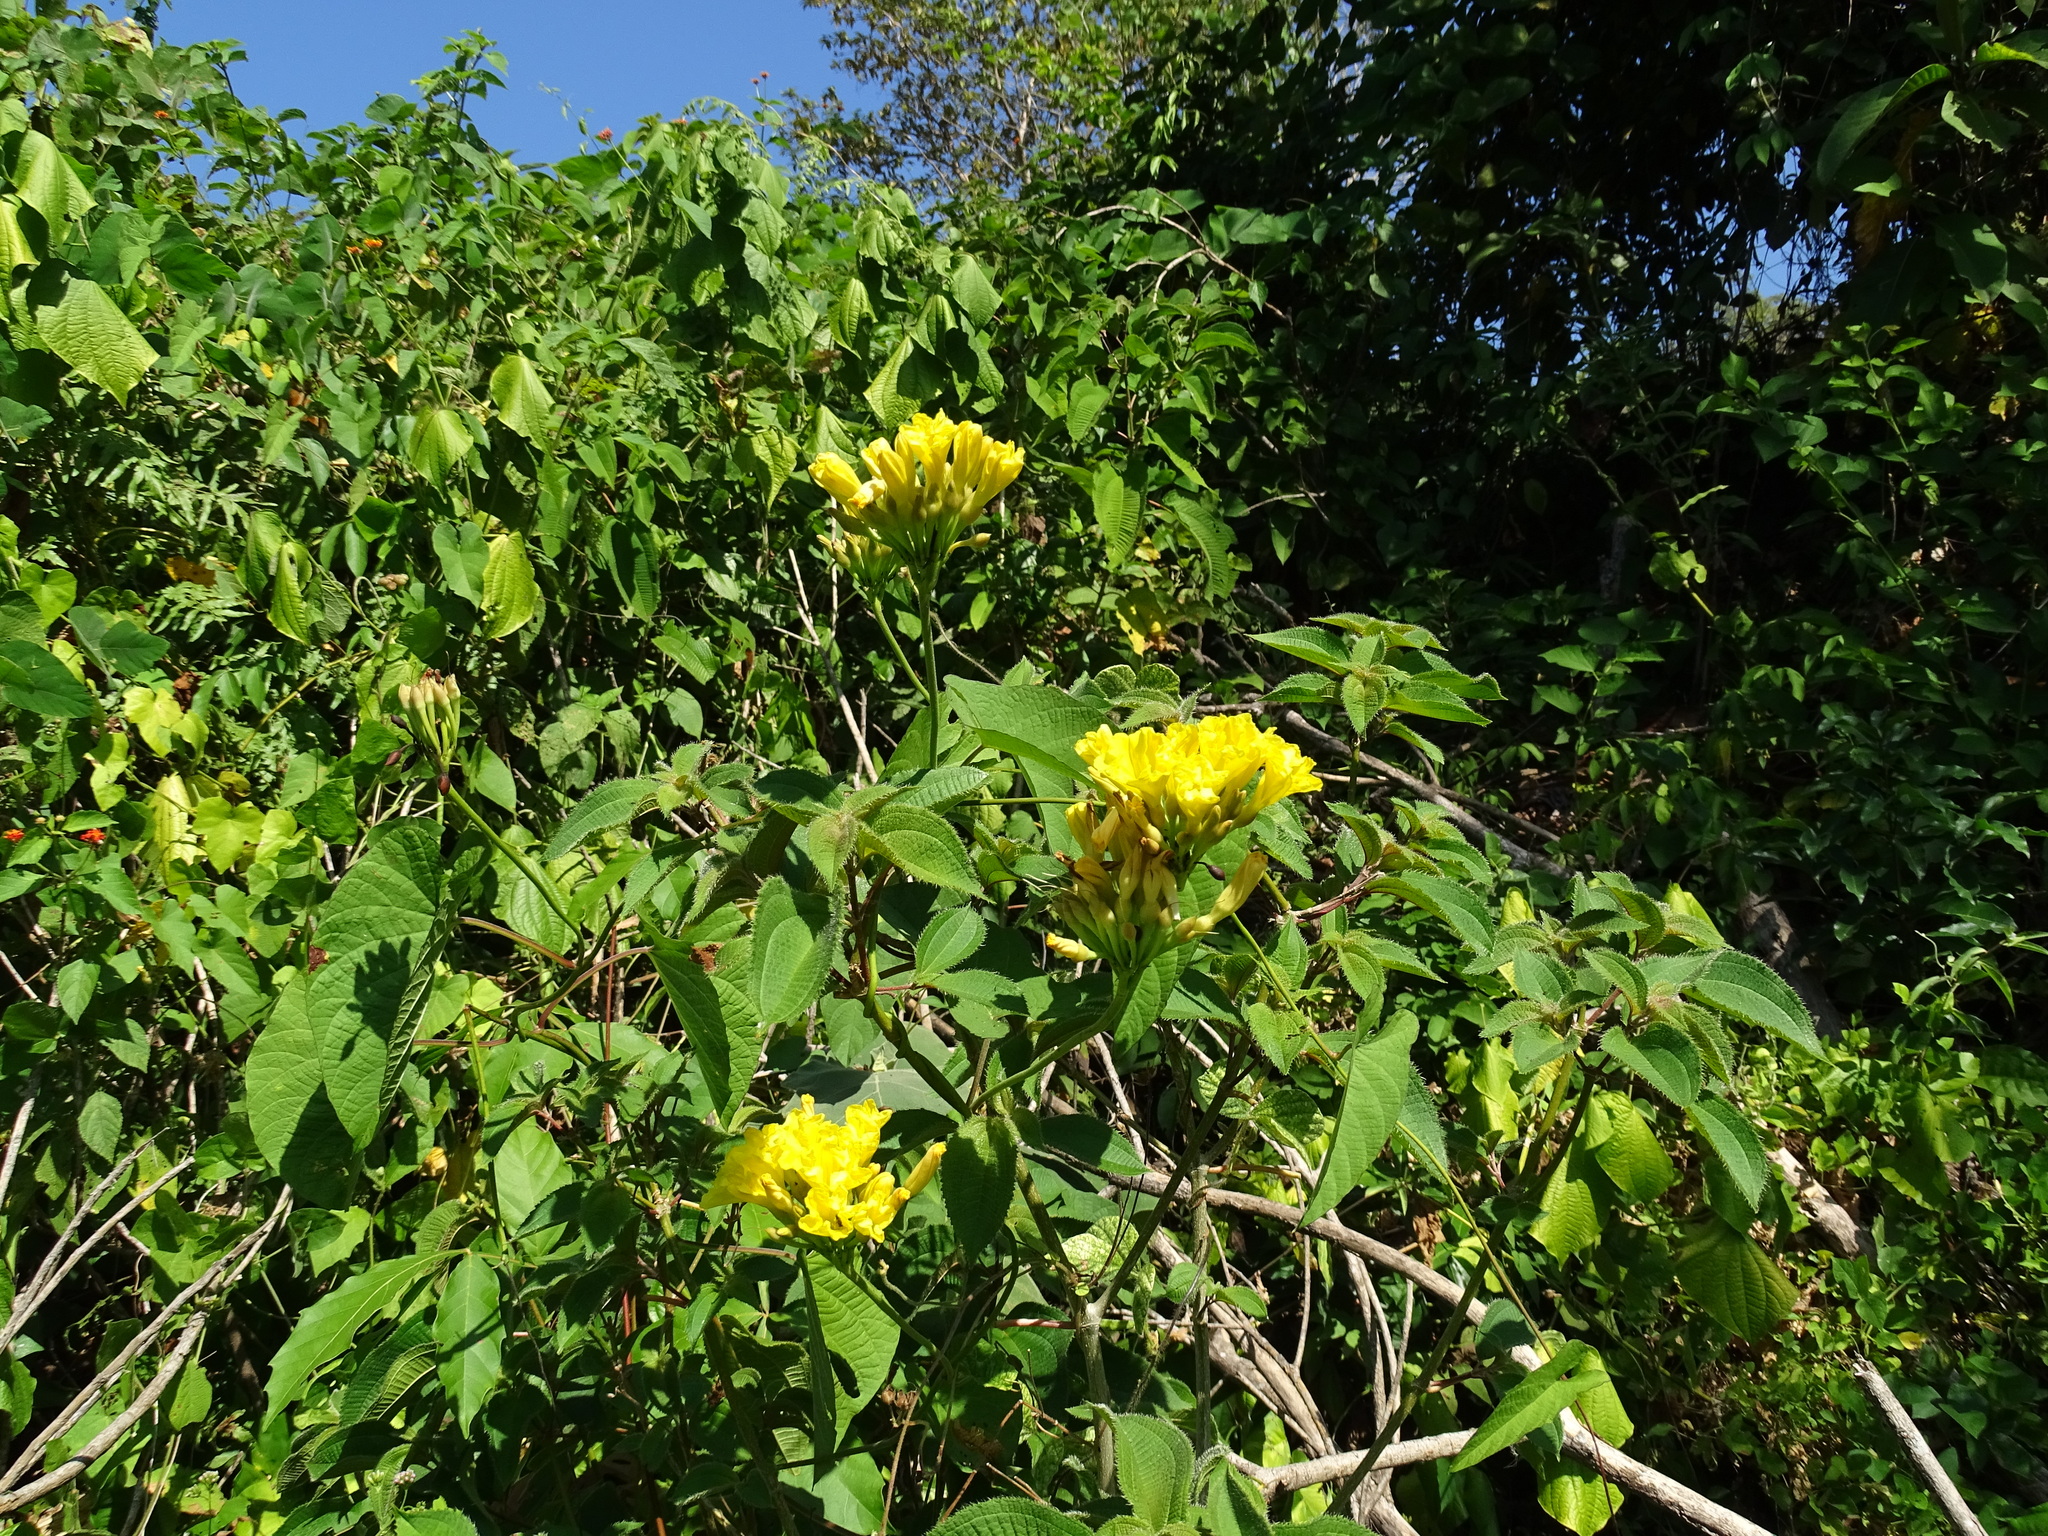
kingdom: Plantae
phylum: Tracheophyta
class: Magnoliopsida
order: Solanales
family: Convolvulaceae
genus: Camonea
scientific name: Camonea umbellata
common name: Hogvine
